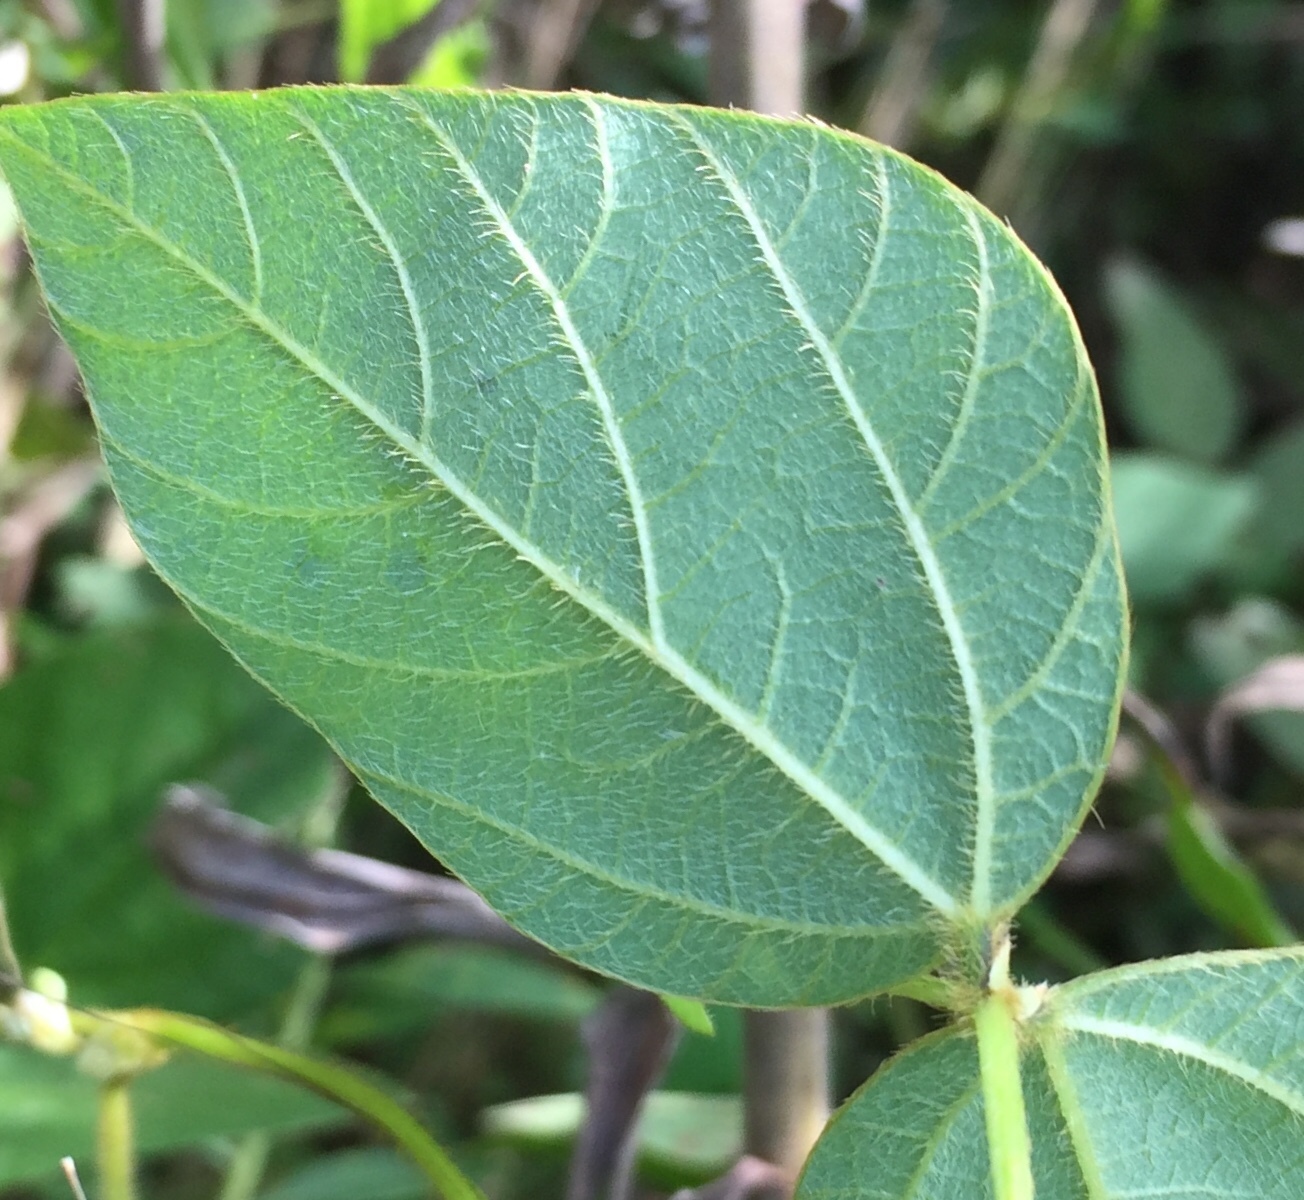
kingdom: Plantae
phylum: Tracheophyta
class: Magnoliopsida
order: Fabales
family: Fabaceae
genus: Amphicarpaea
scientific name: Amphicarpaea bracteata
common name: American hog peanut
